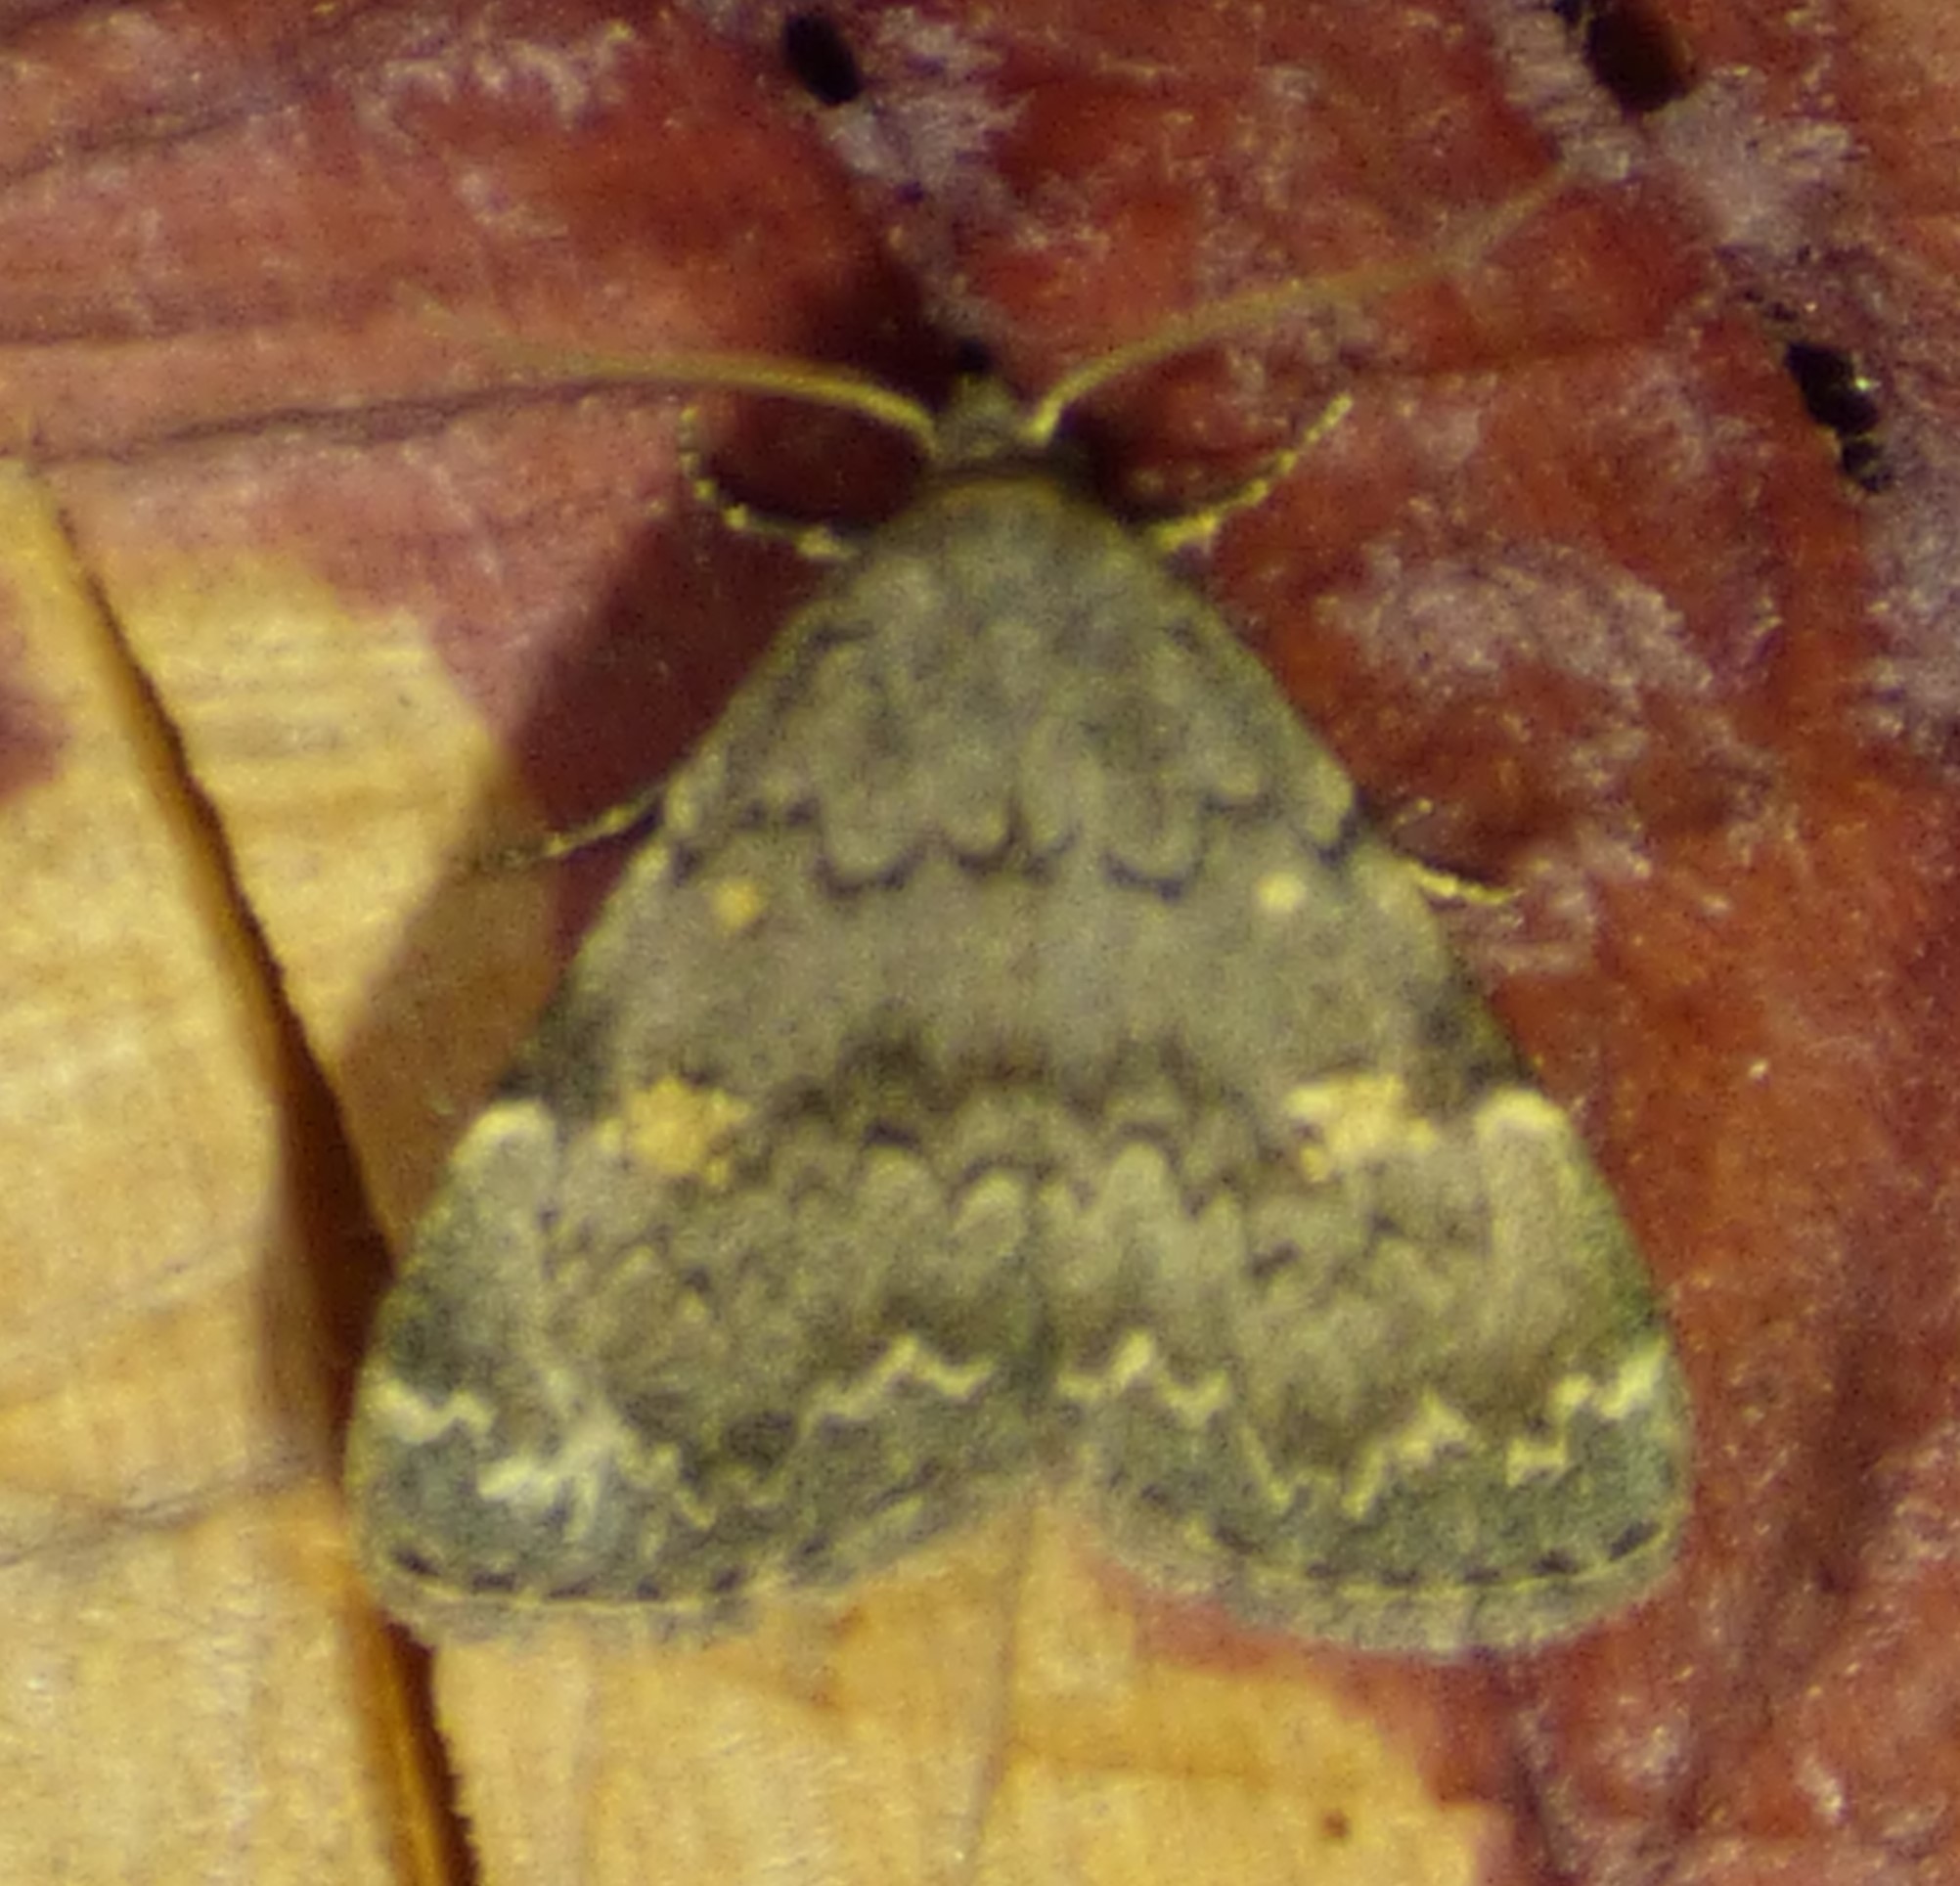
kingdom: Animalia
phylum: Arthropoda
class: Insecta
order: Lepidoptera
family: Erebidae
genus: Idia
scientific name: Idia aemula
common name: Common idia moth
